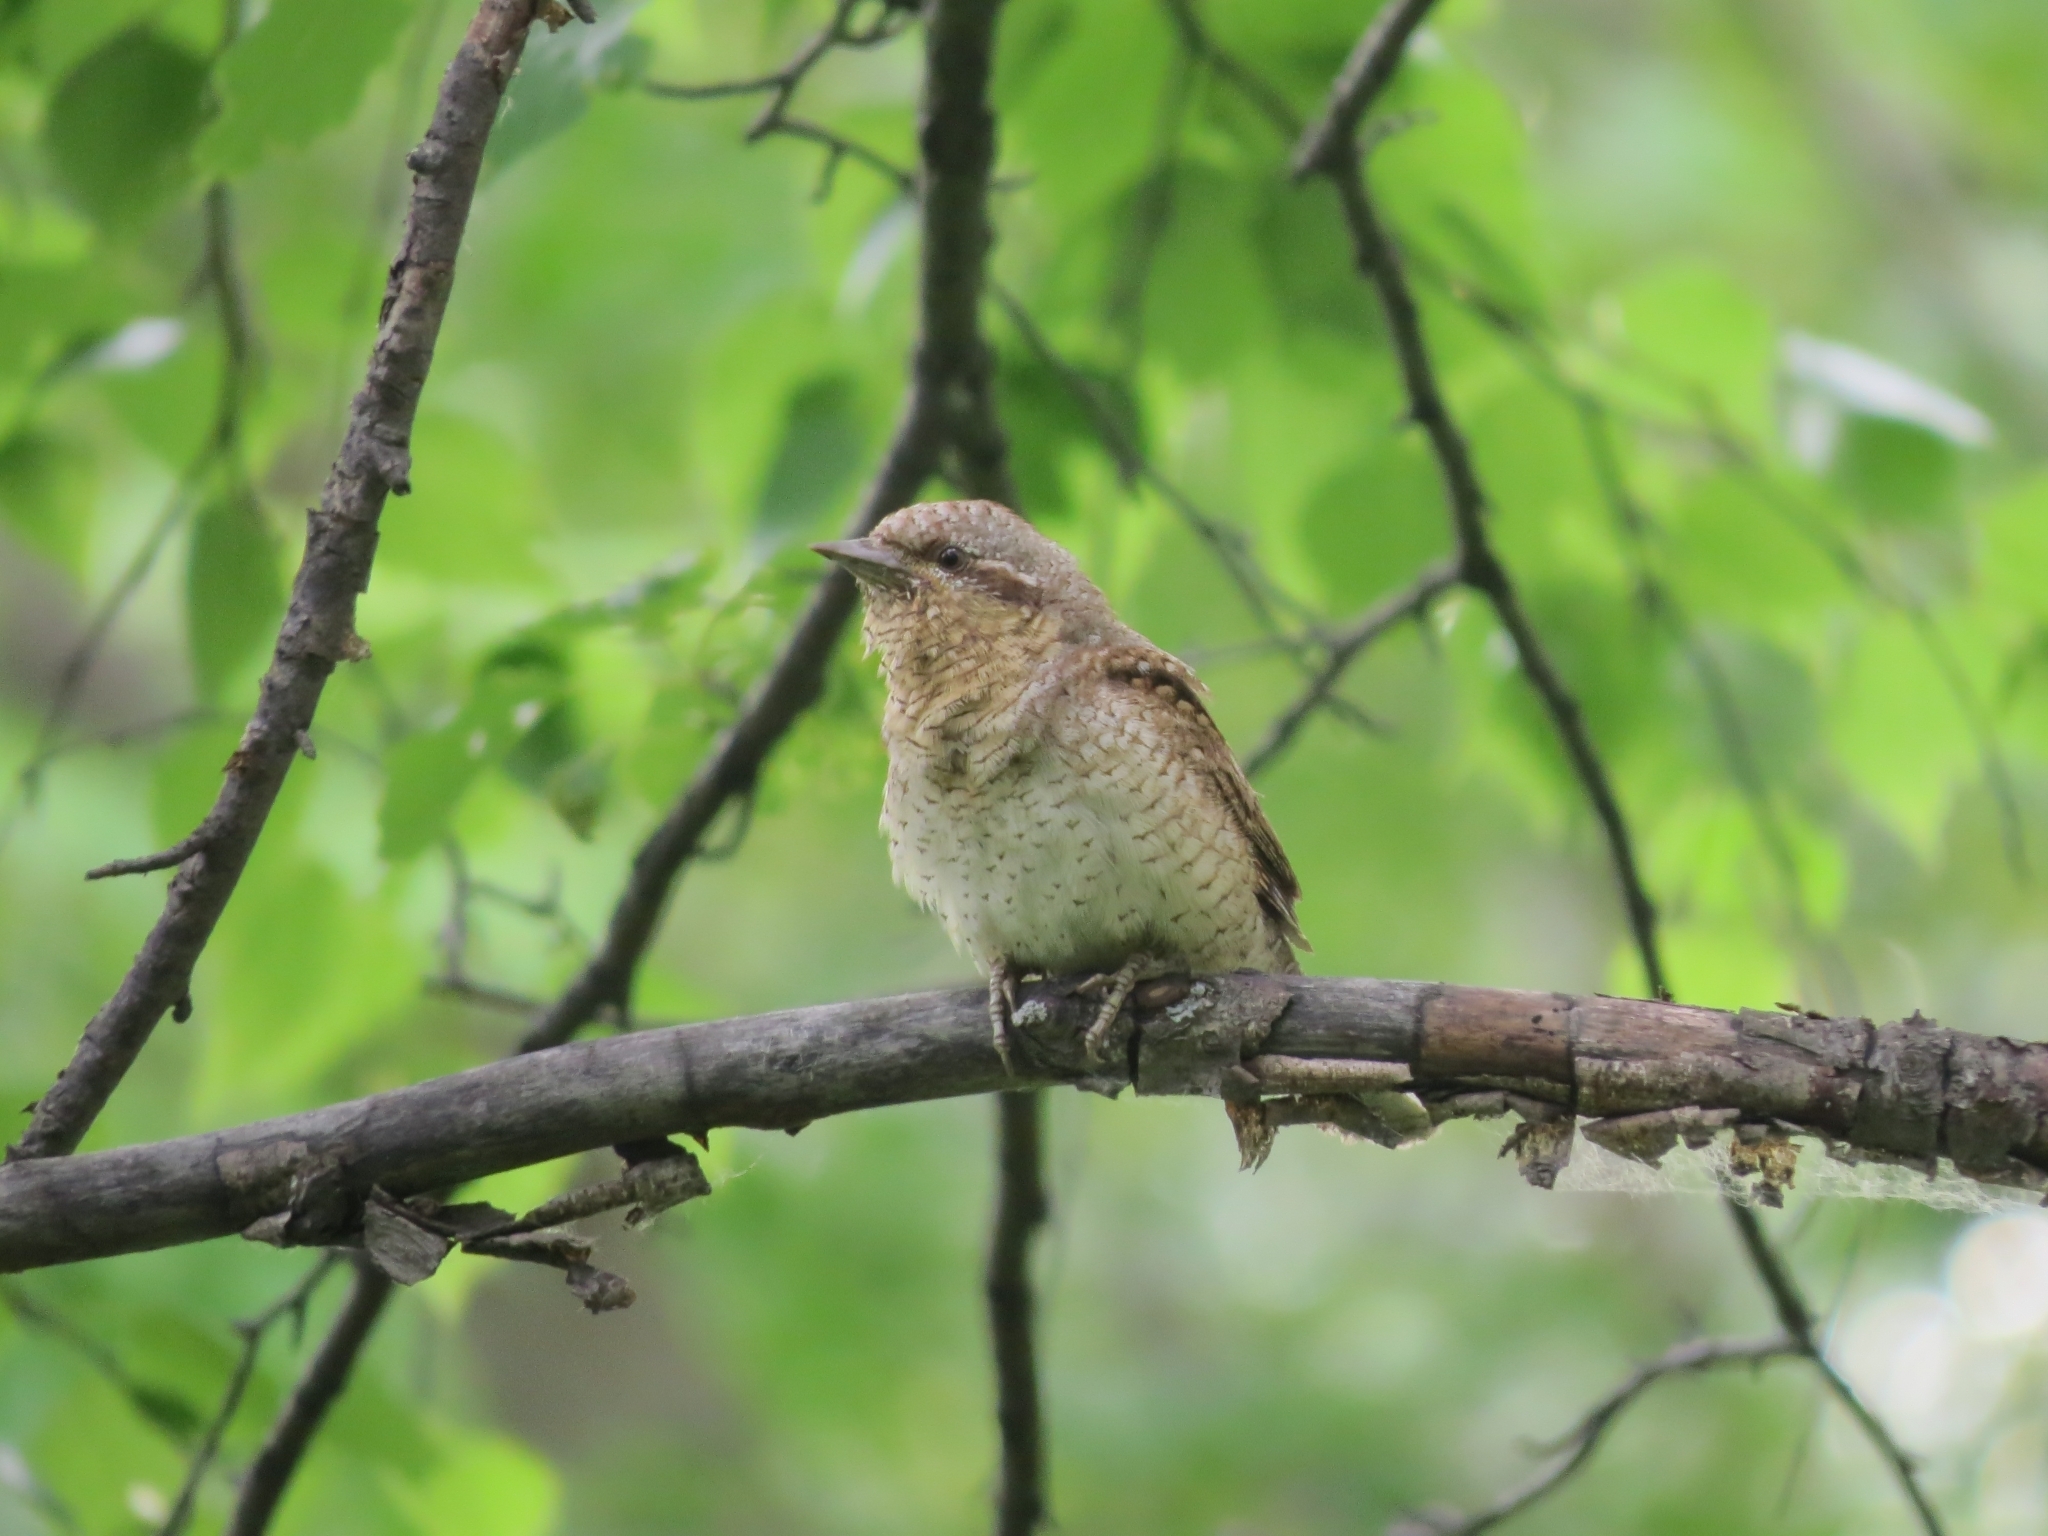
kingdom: Animalia
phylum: Chordata
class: Aves
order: Piciformes
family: Picidae
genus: Jynx
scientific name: Jynx torquilla
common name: Eurasian wryneck
